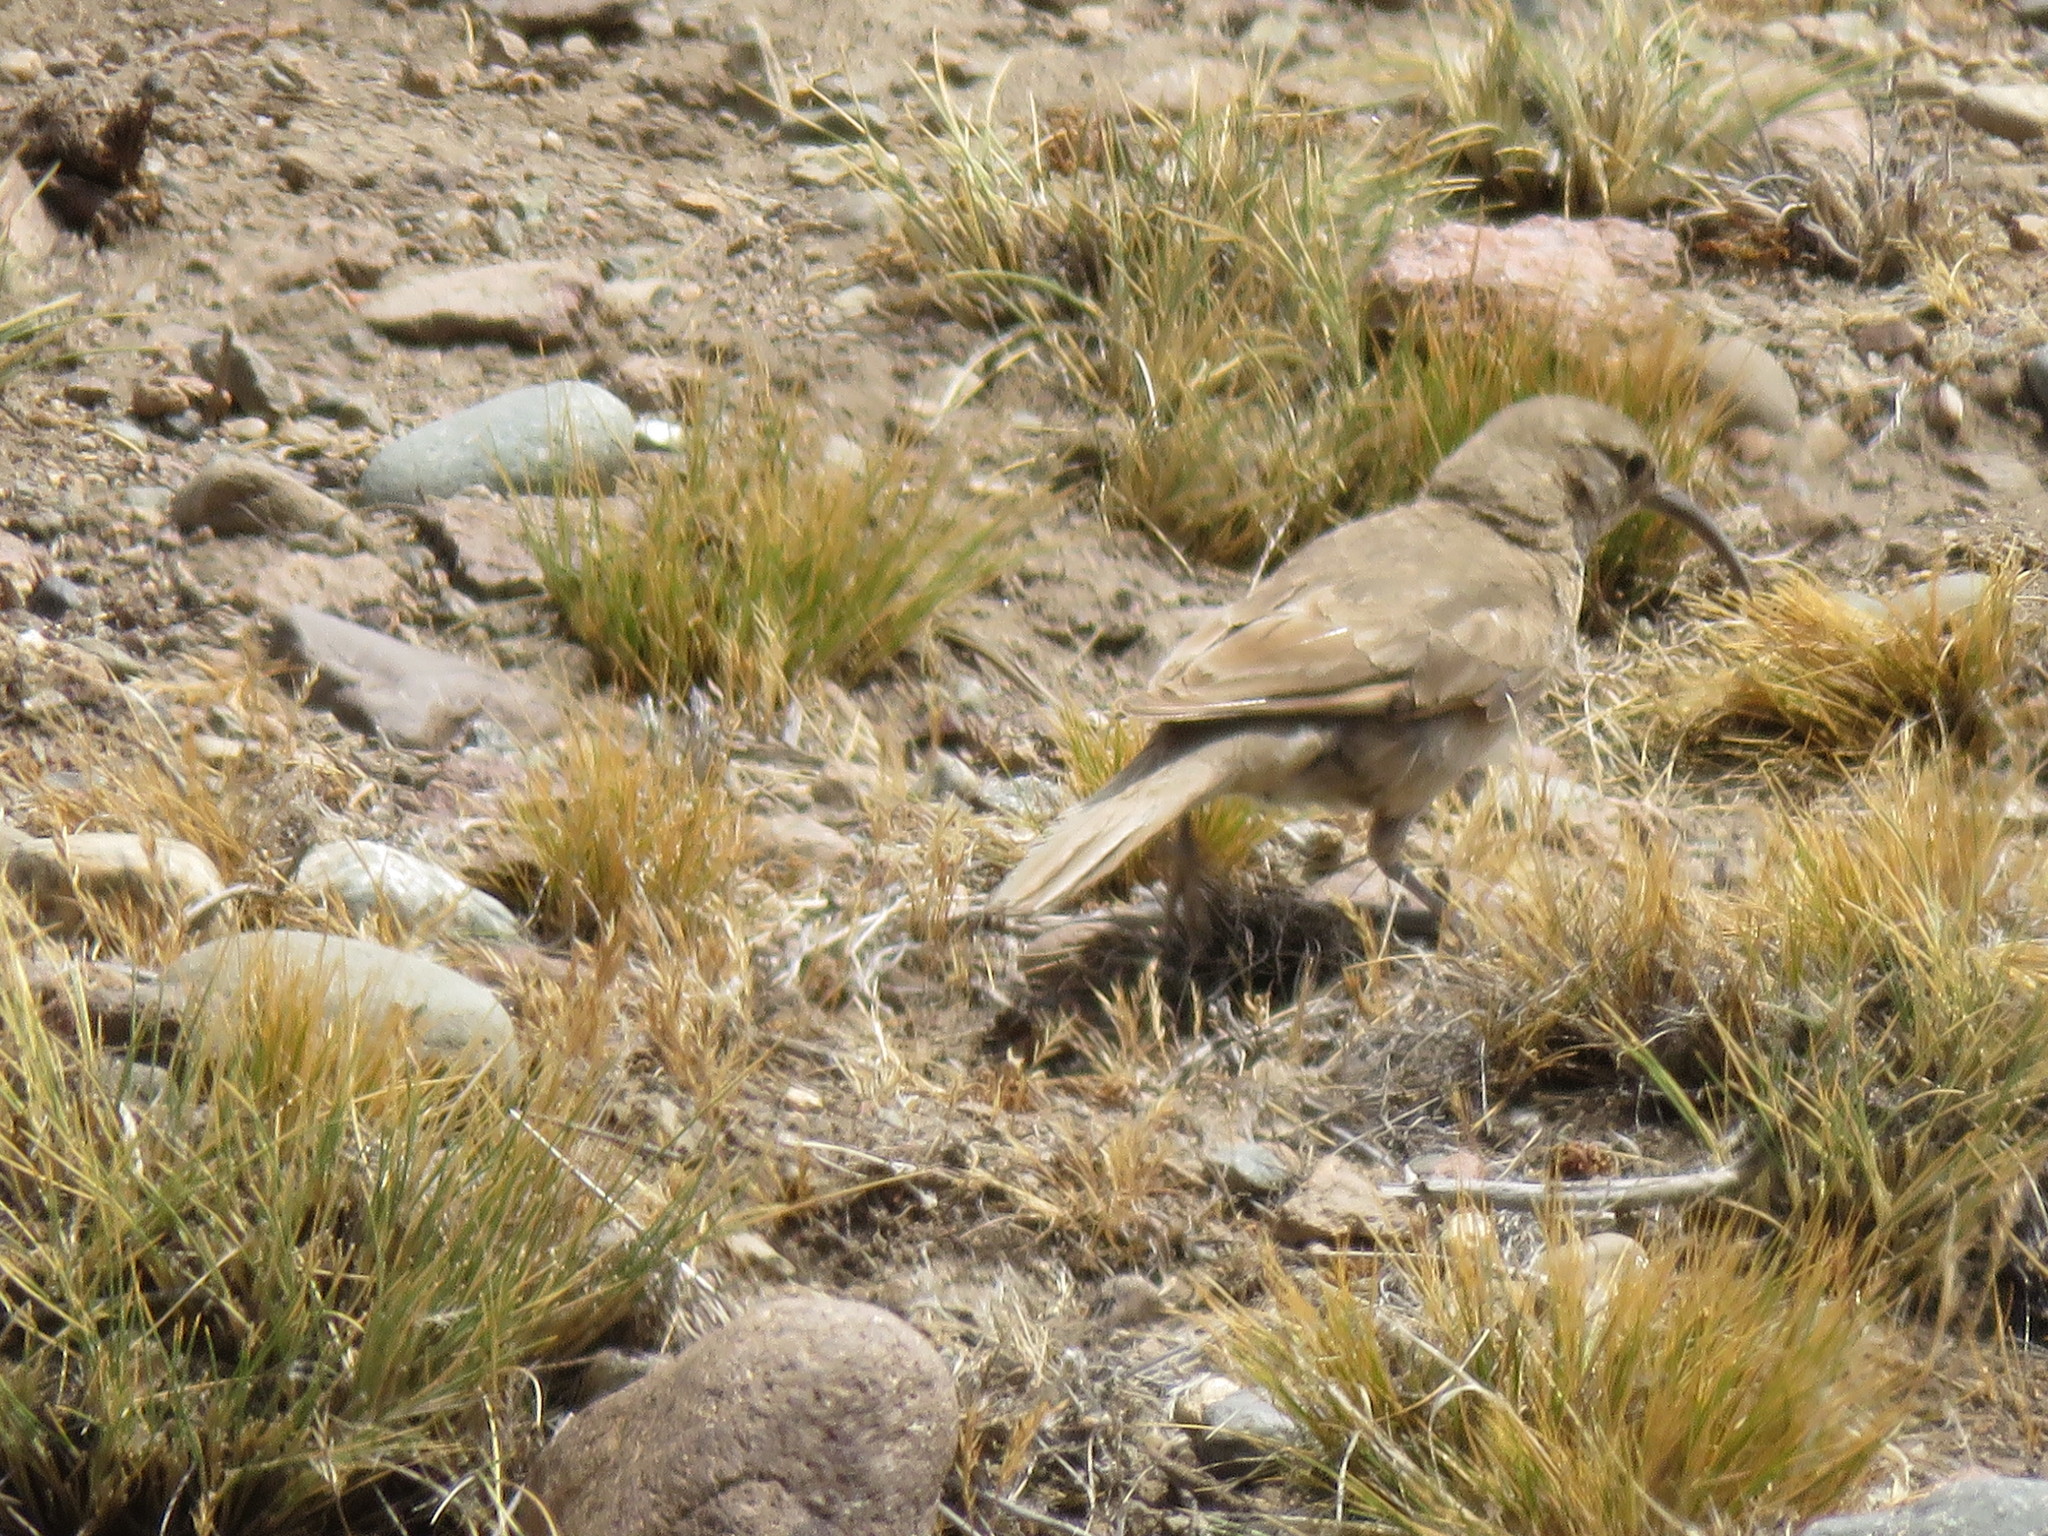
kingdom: Animalia
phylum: Chordata
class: Aves
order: Passeriformes
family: Furnariidae
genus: Upucerthia
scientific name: Upucerthia dumetaria
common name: Scale-throated earthcreeper
